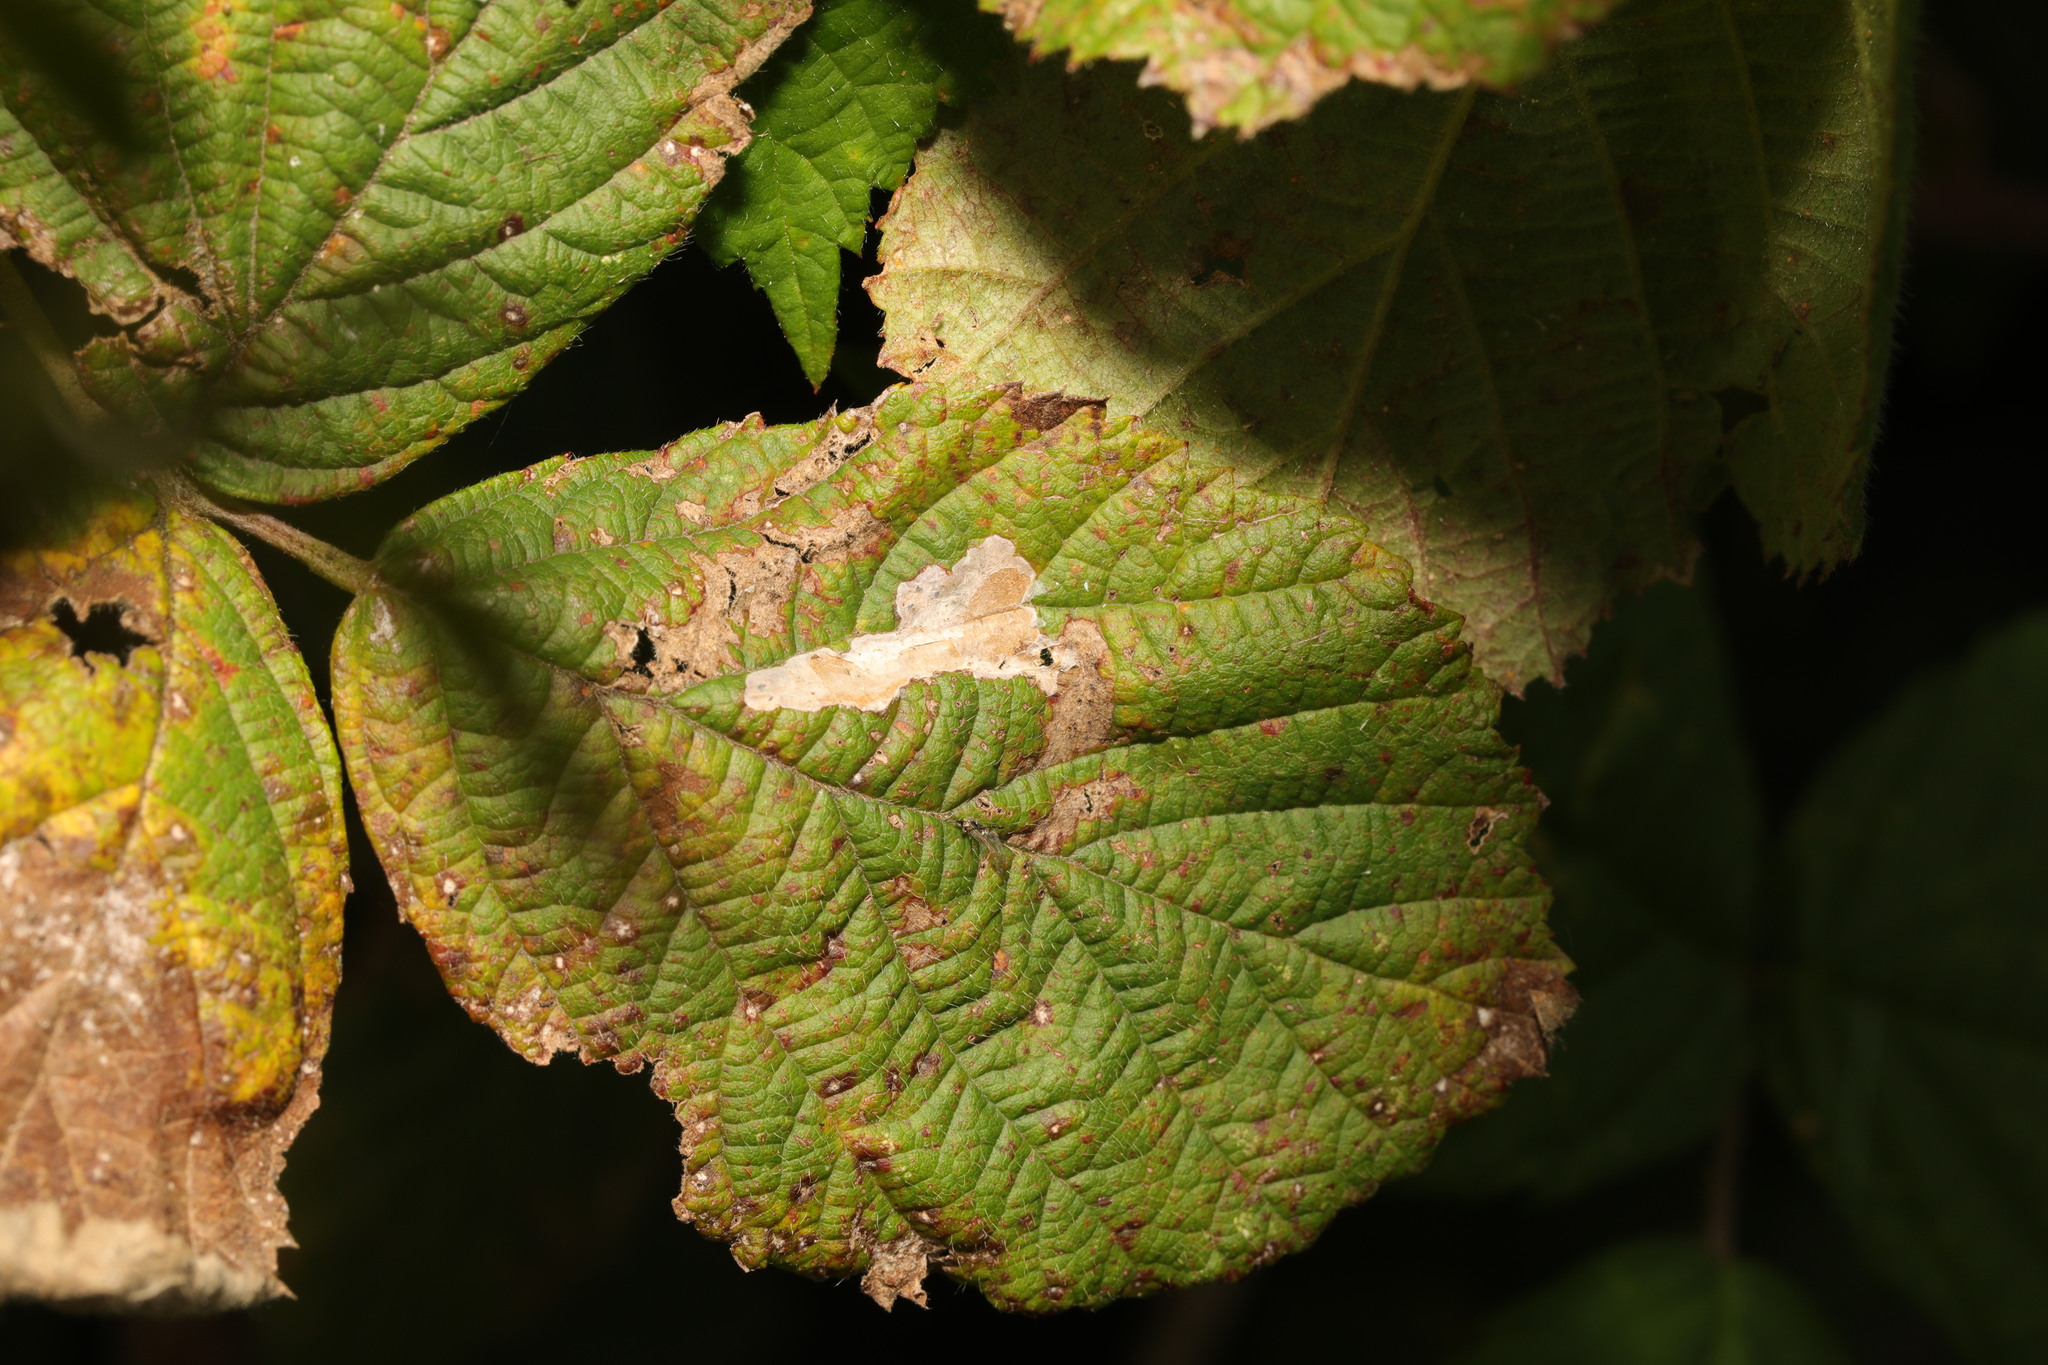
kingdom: Animalia
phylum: Arthropoda
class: Insecta
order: Lepidoptera
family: Tischeriidae
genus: Coptotriche
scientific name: Coptotriche marginea
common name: Bordered carl
